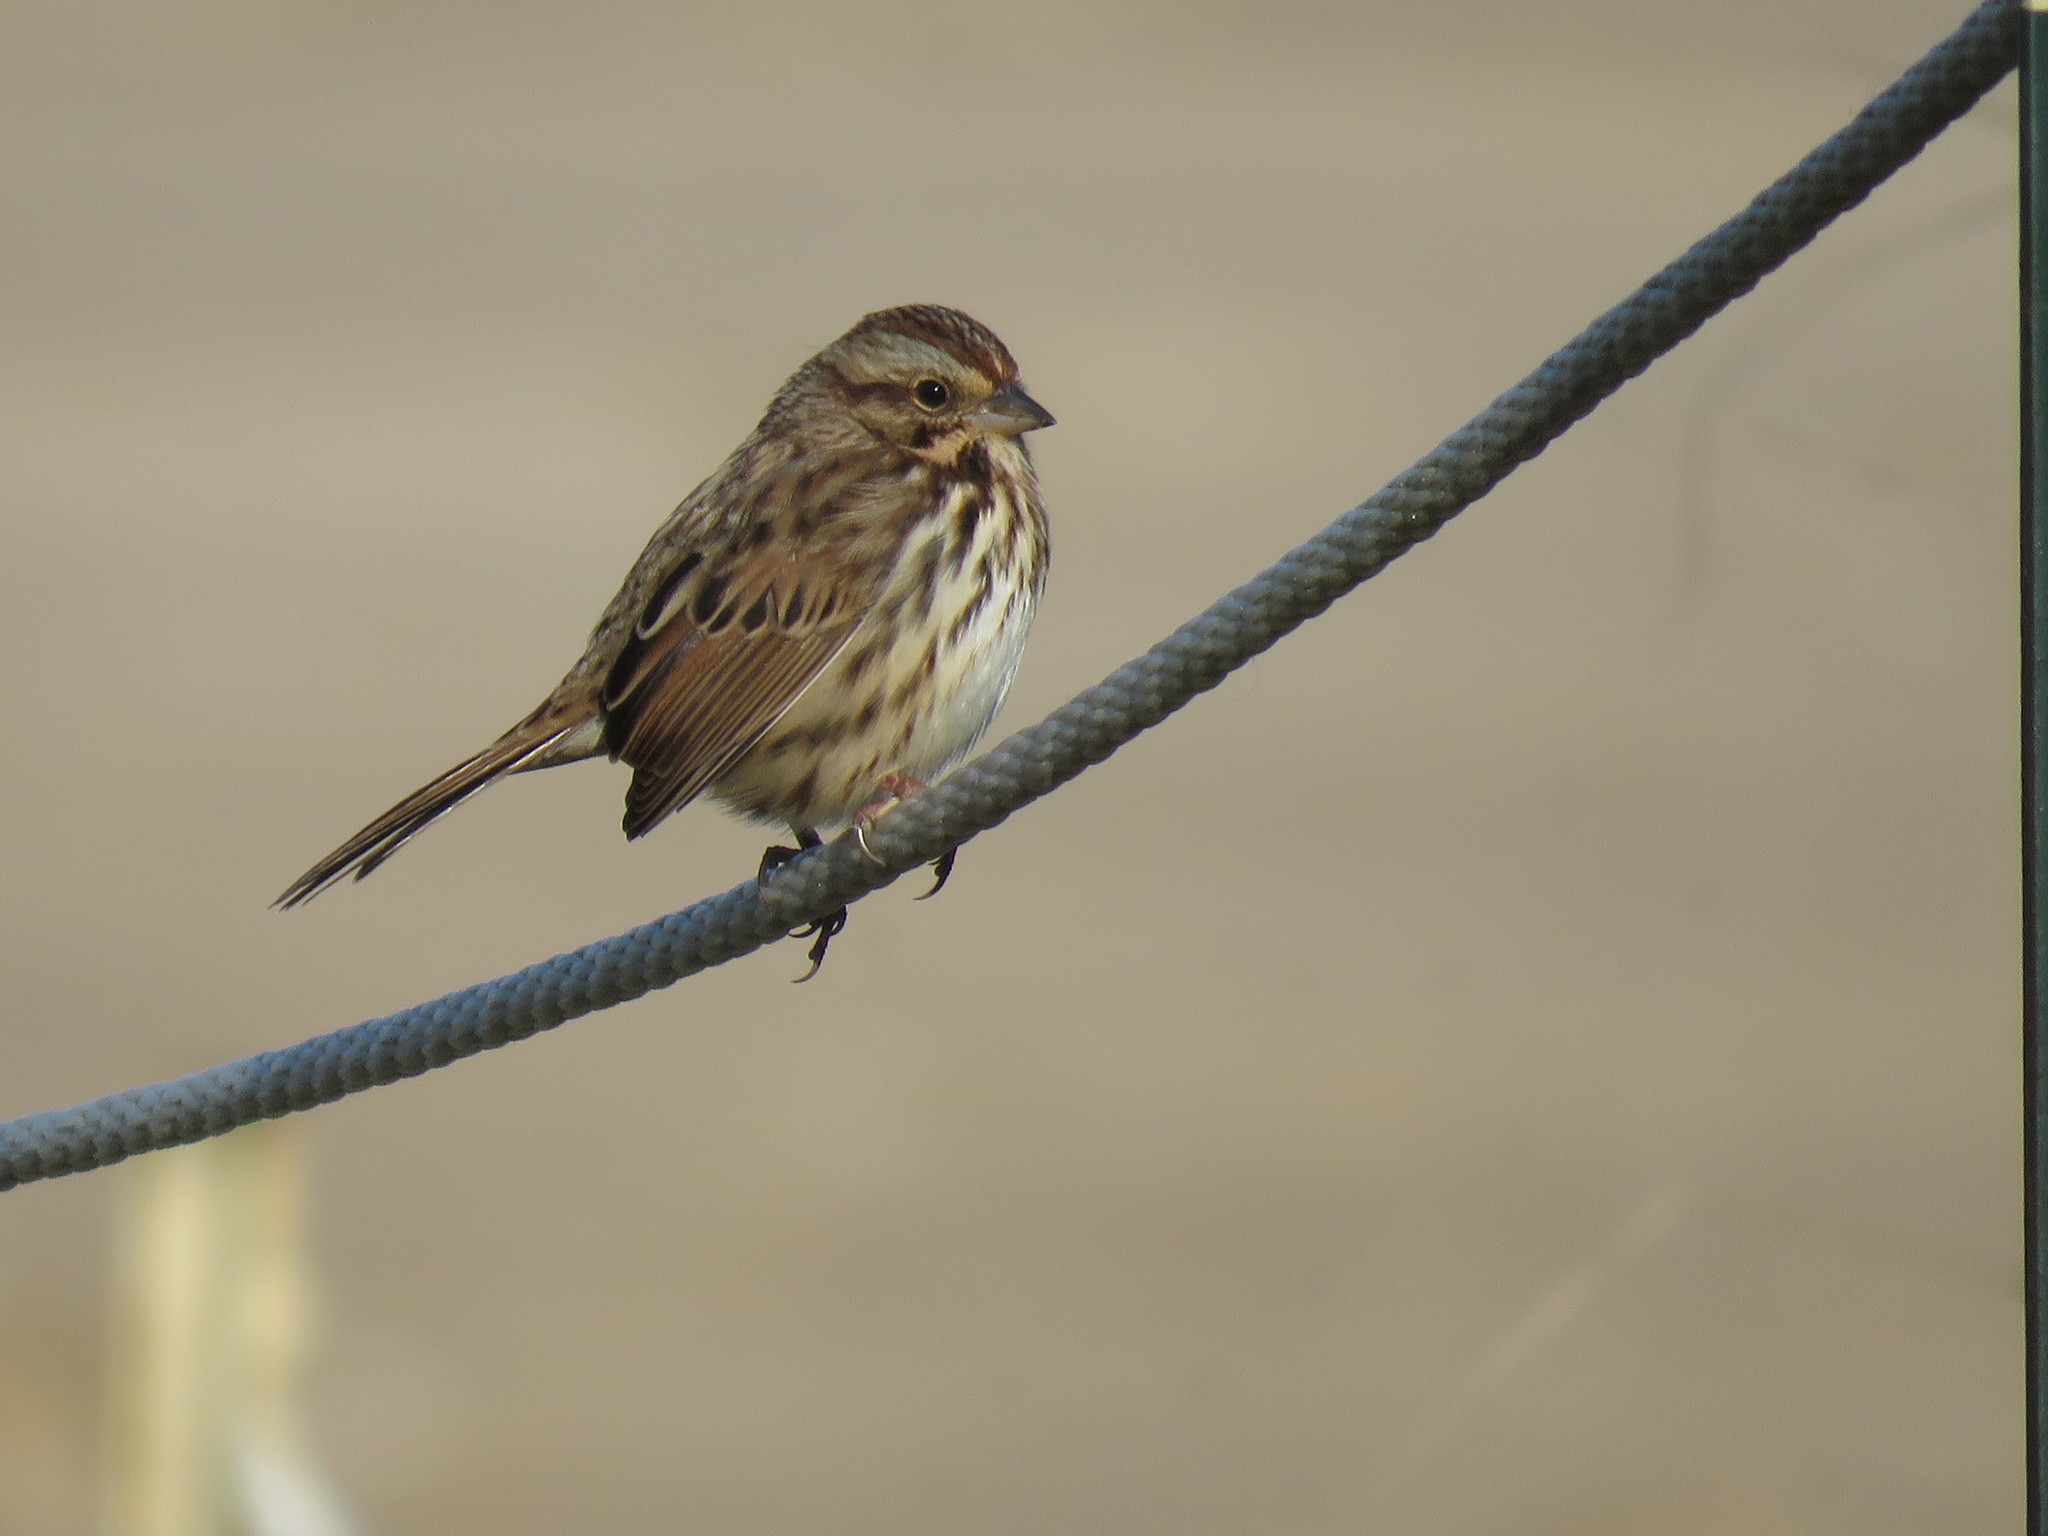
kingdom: Animalia
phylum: Chordata
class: Aves
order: Passeriformes
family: Passerellidae
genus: Melospiza
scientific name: Melospiza melodia
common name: Song sparrow
